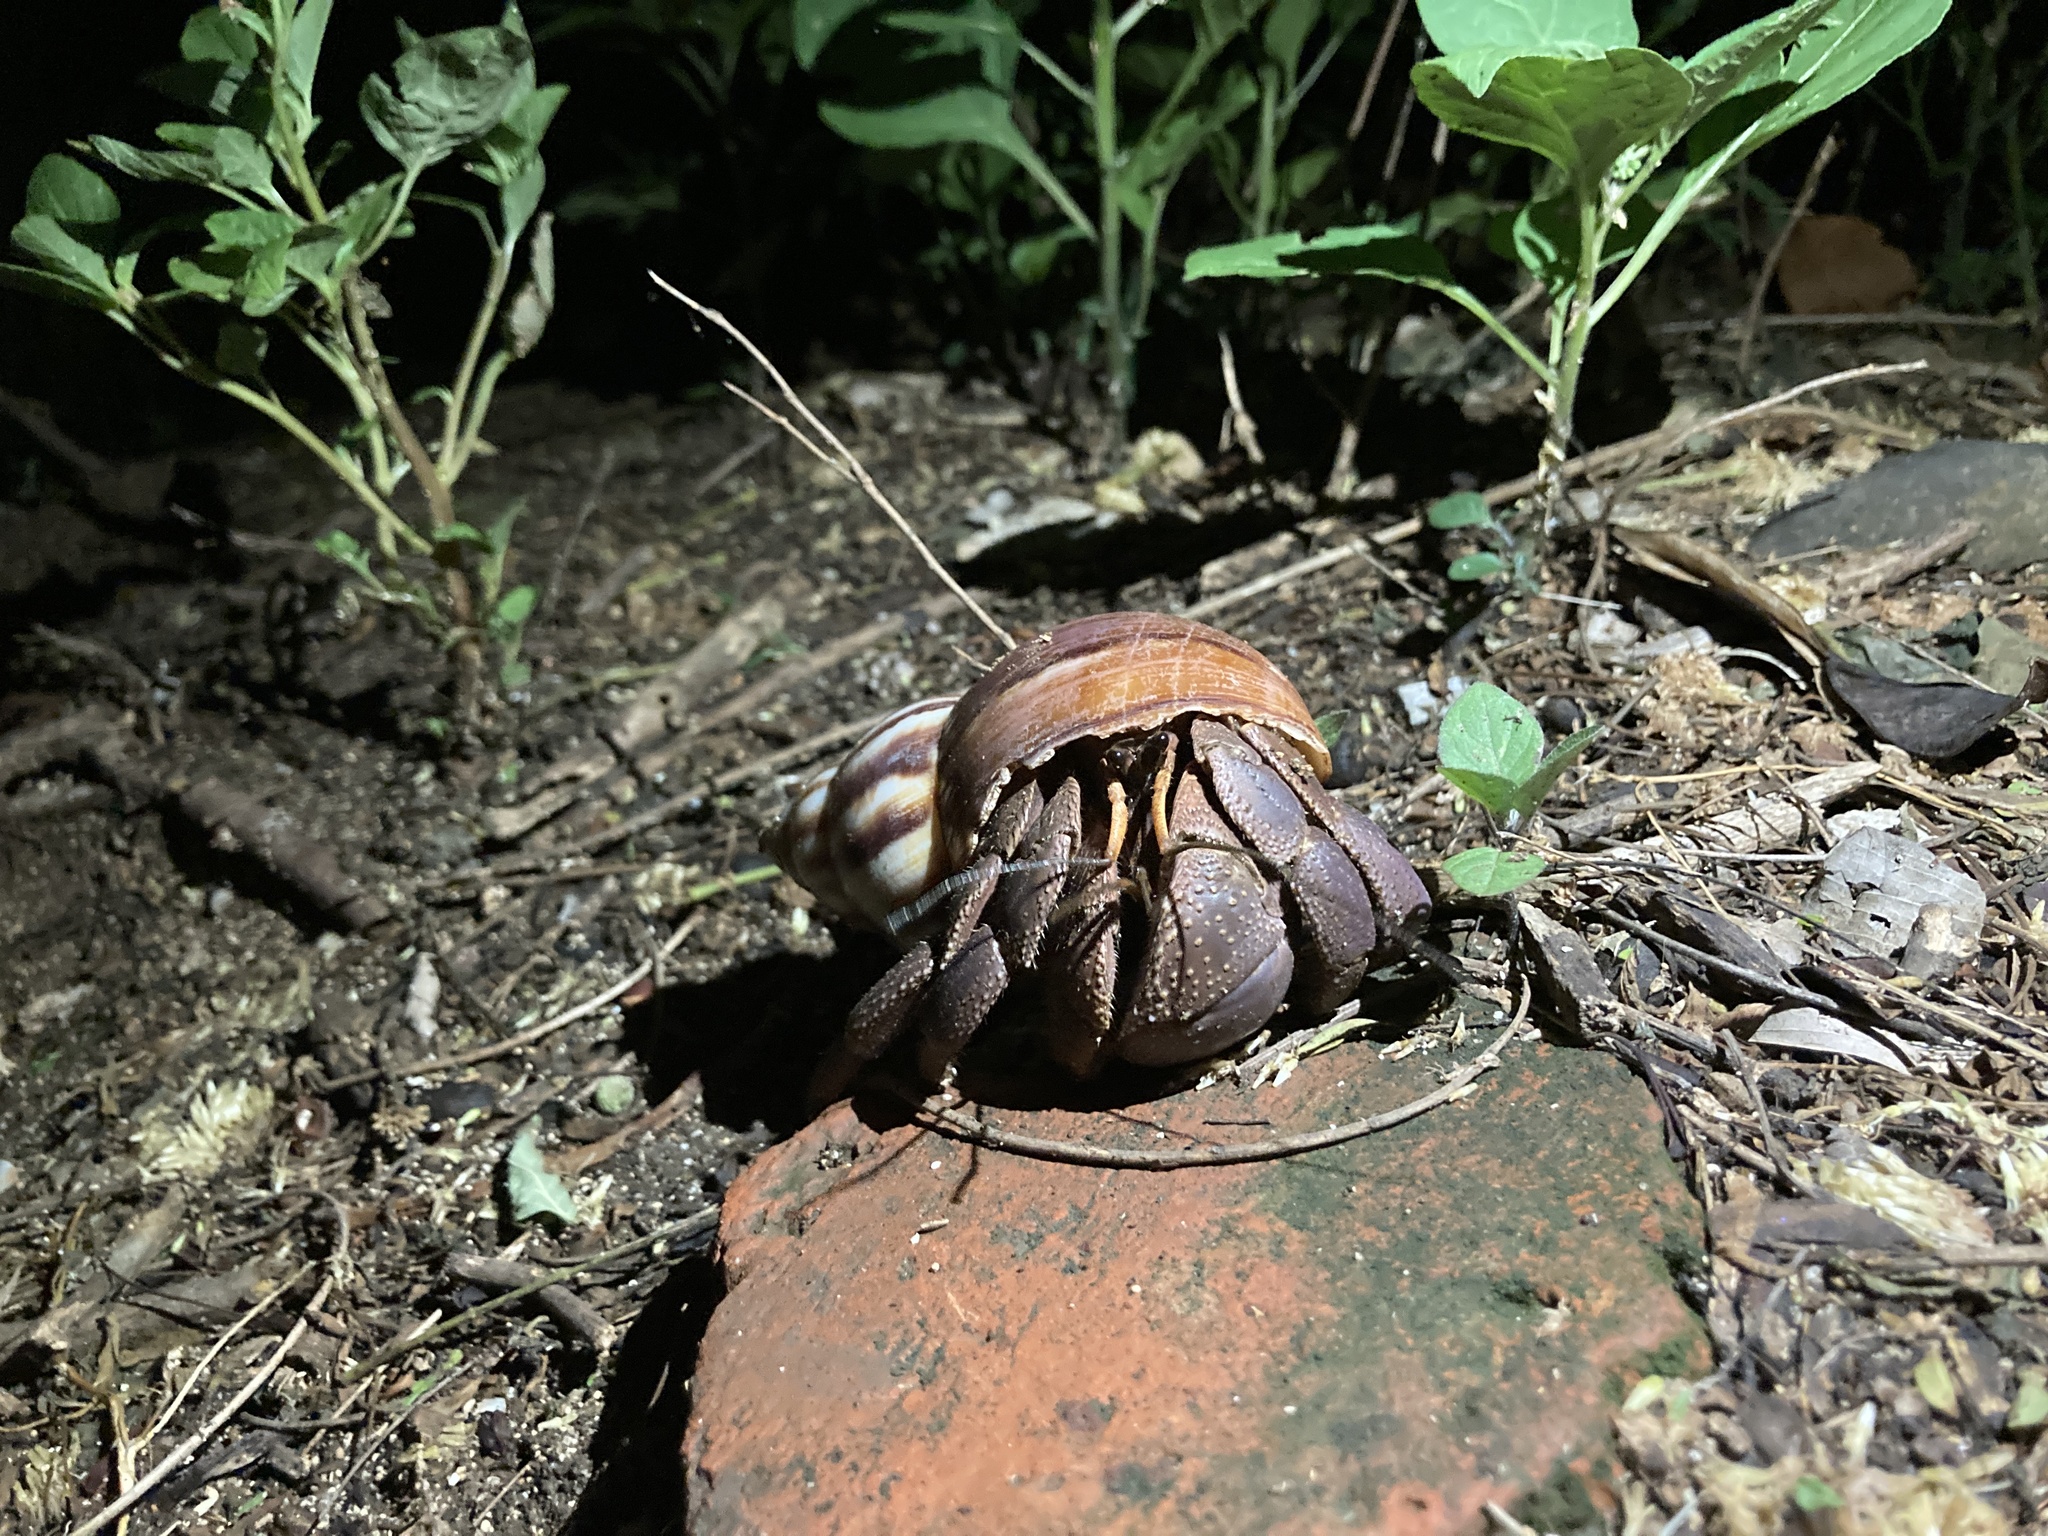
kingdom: Animalia
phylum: Arthropoda
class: Malacostraca
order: Decapoda
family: Coenobitidae
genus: Coenobita
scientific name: Coenobita brevimanus
